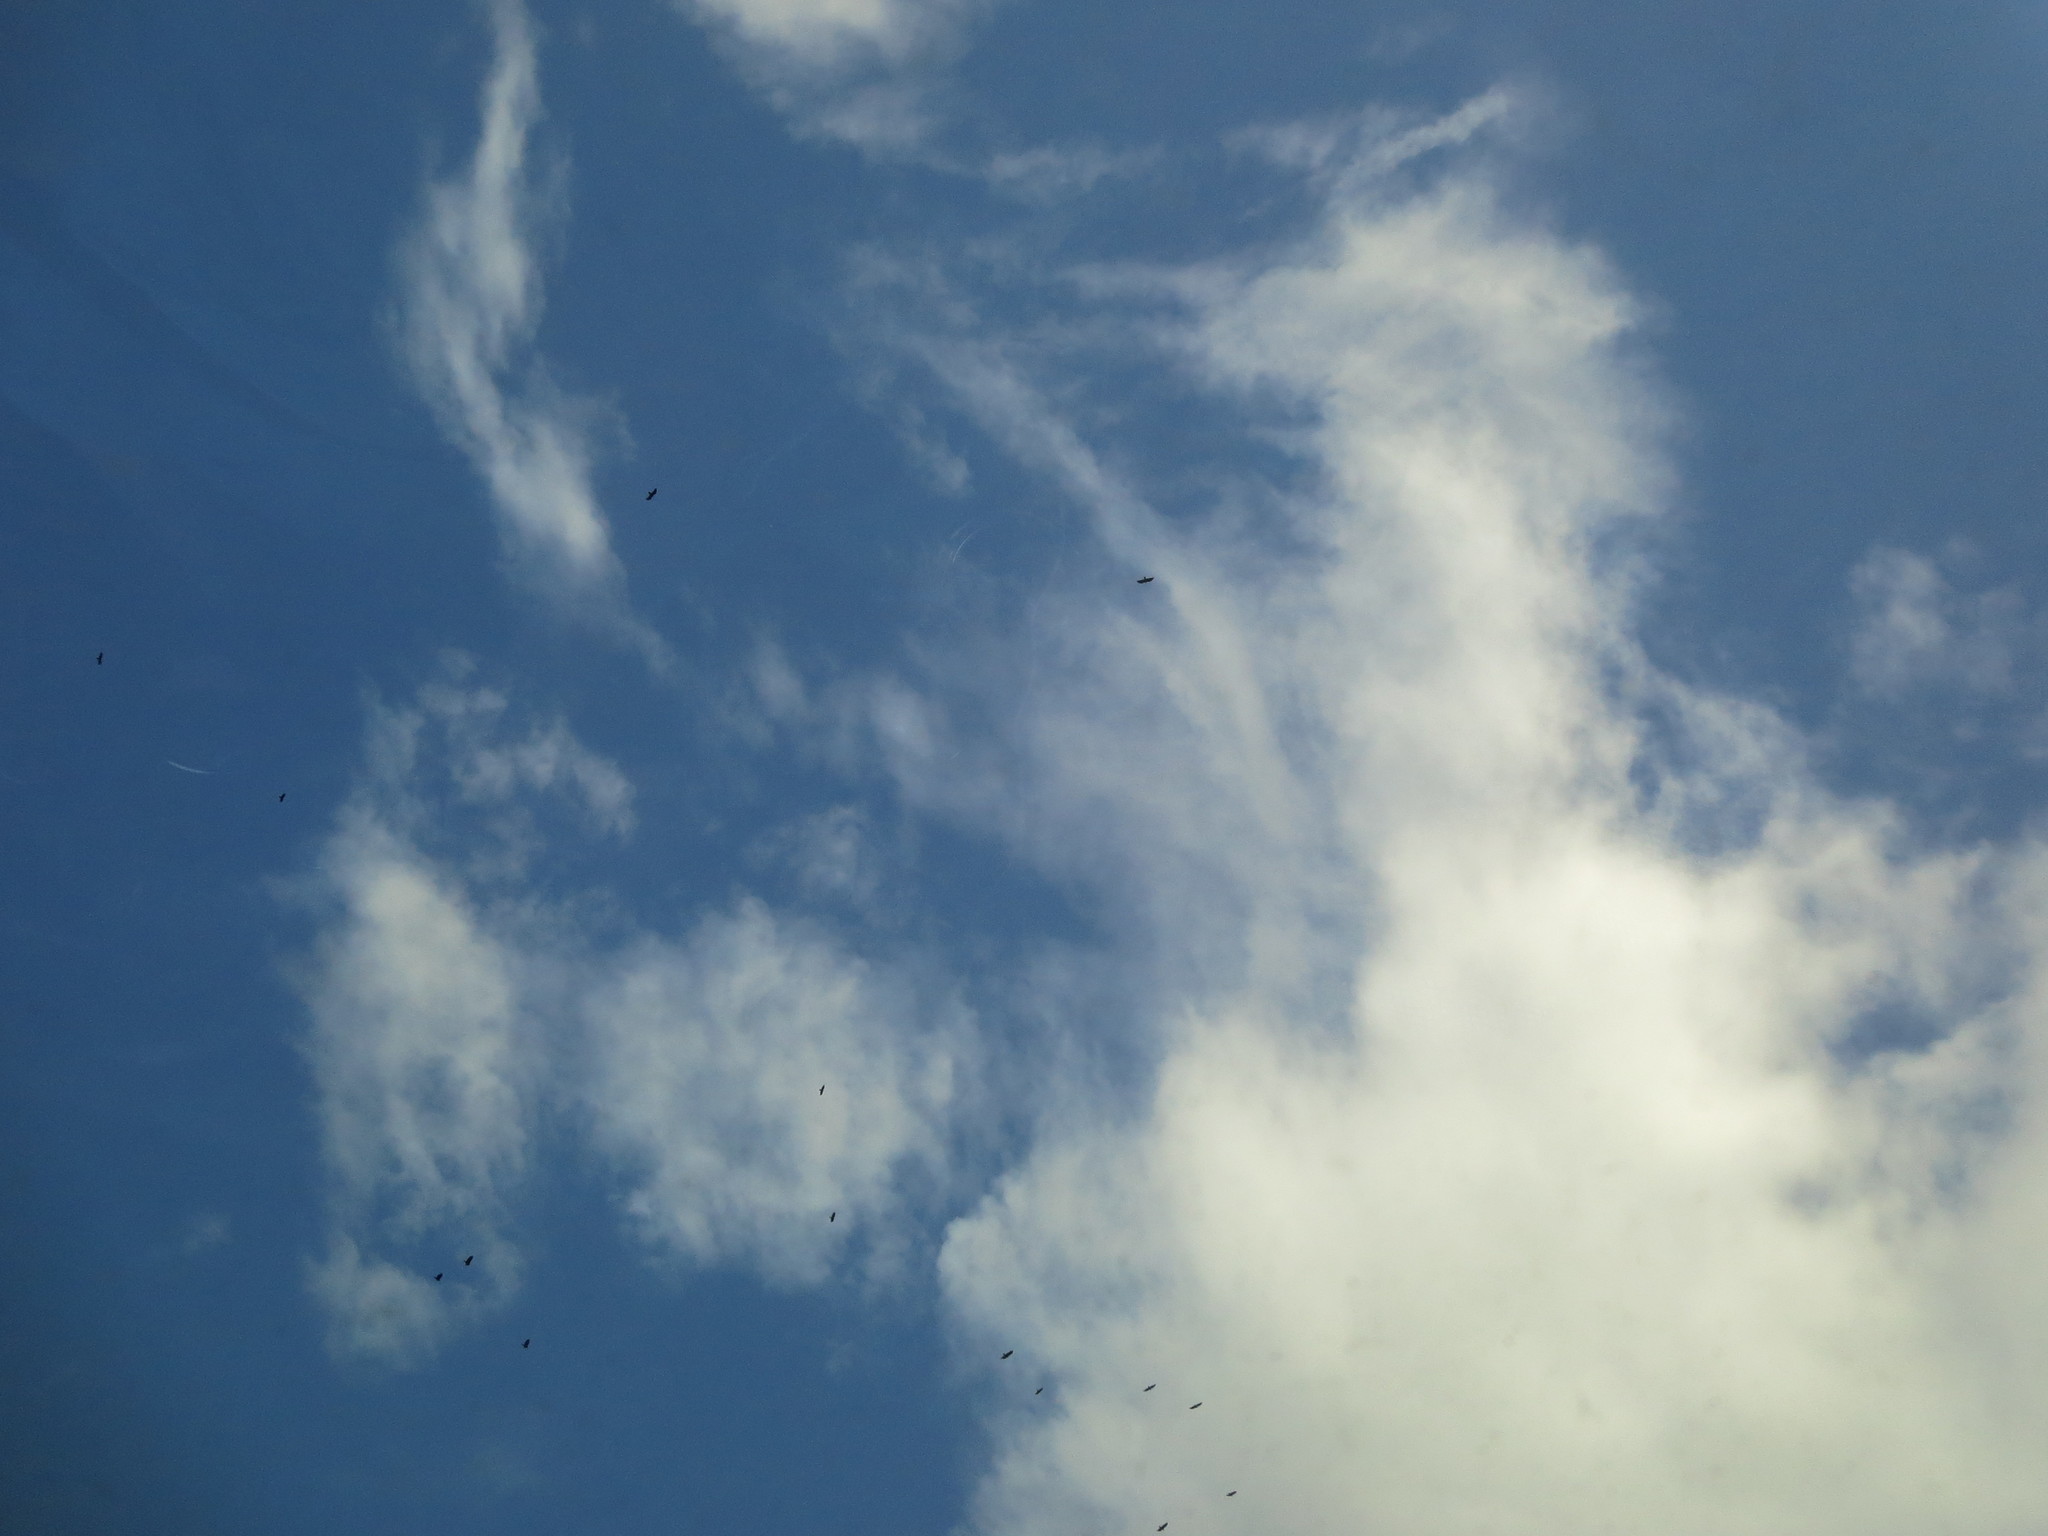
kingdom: Animalia
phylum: Chordata
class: Aves
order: Accipitriformes
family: Cathartidae
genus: Cathartes
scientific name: Cathartes aura
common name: Turkey vulture
